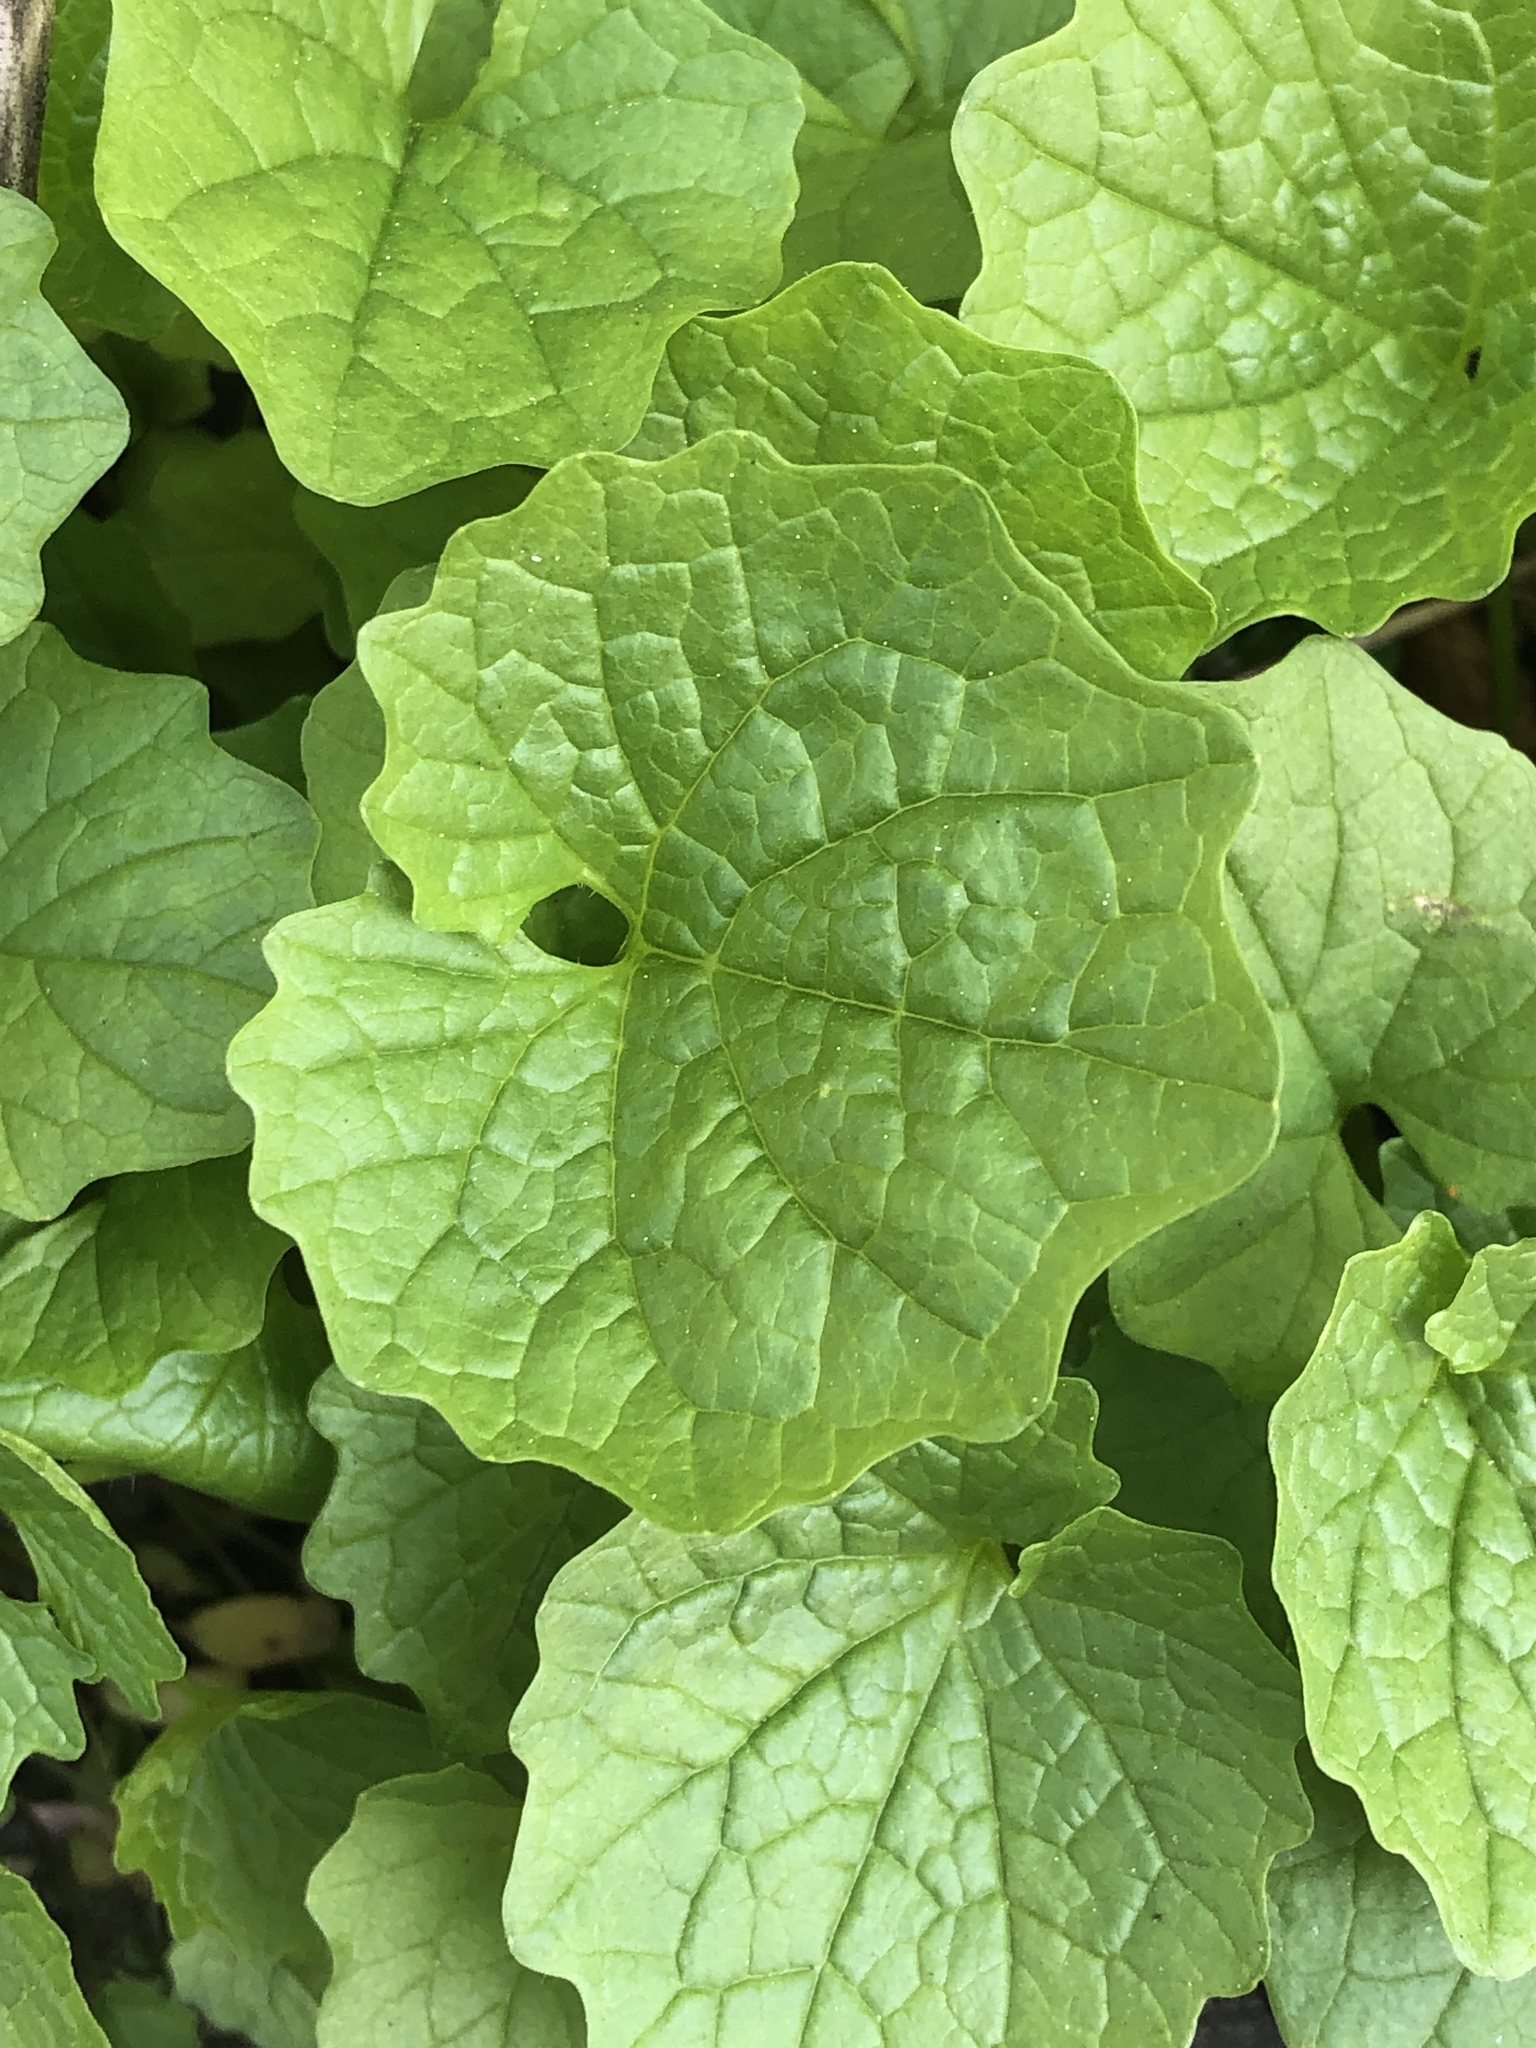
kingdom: Plantae
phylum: Tracheophyta
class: Magnoliopsida
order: Brassicales
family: Brassicaceae
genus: Alliaria
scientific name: Alliaria petiolata
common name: Garlic mustard
